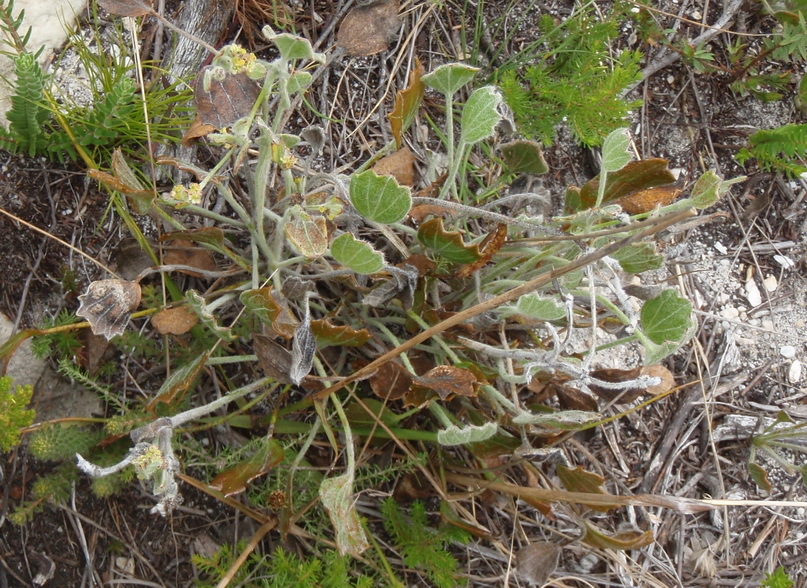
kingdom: Plantae
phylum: Tracheophyta
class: Magnoliopsida
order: Apiales
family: Apiaceae
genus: Centella
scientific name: Centella difformis
